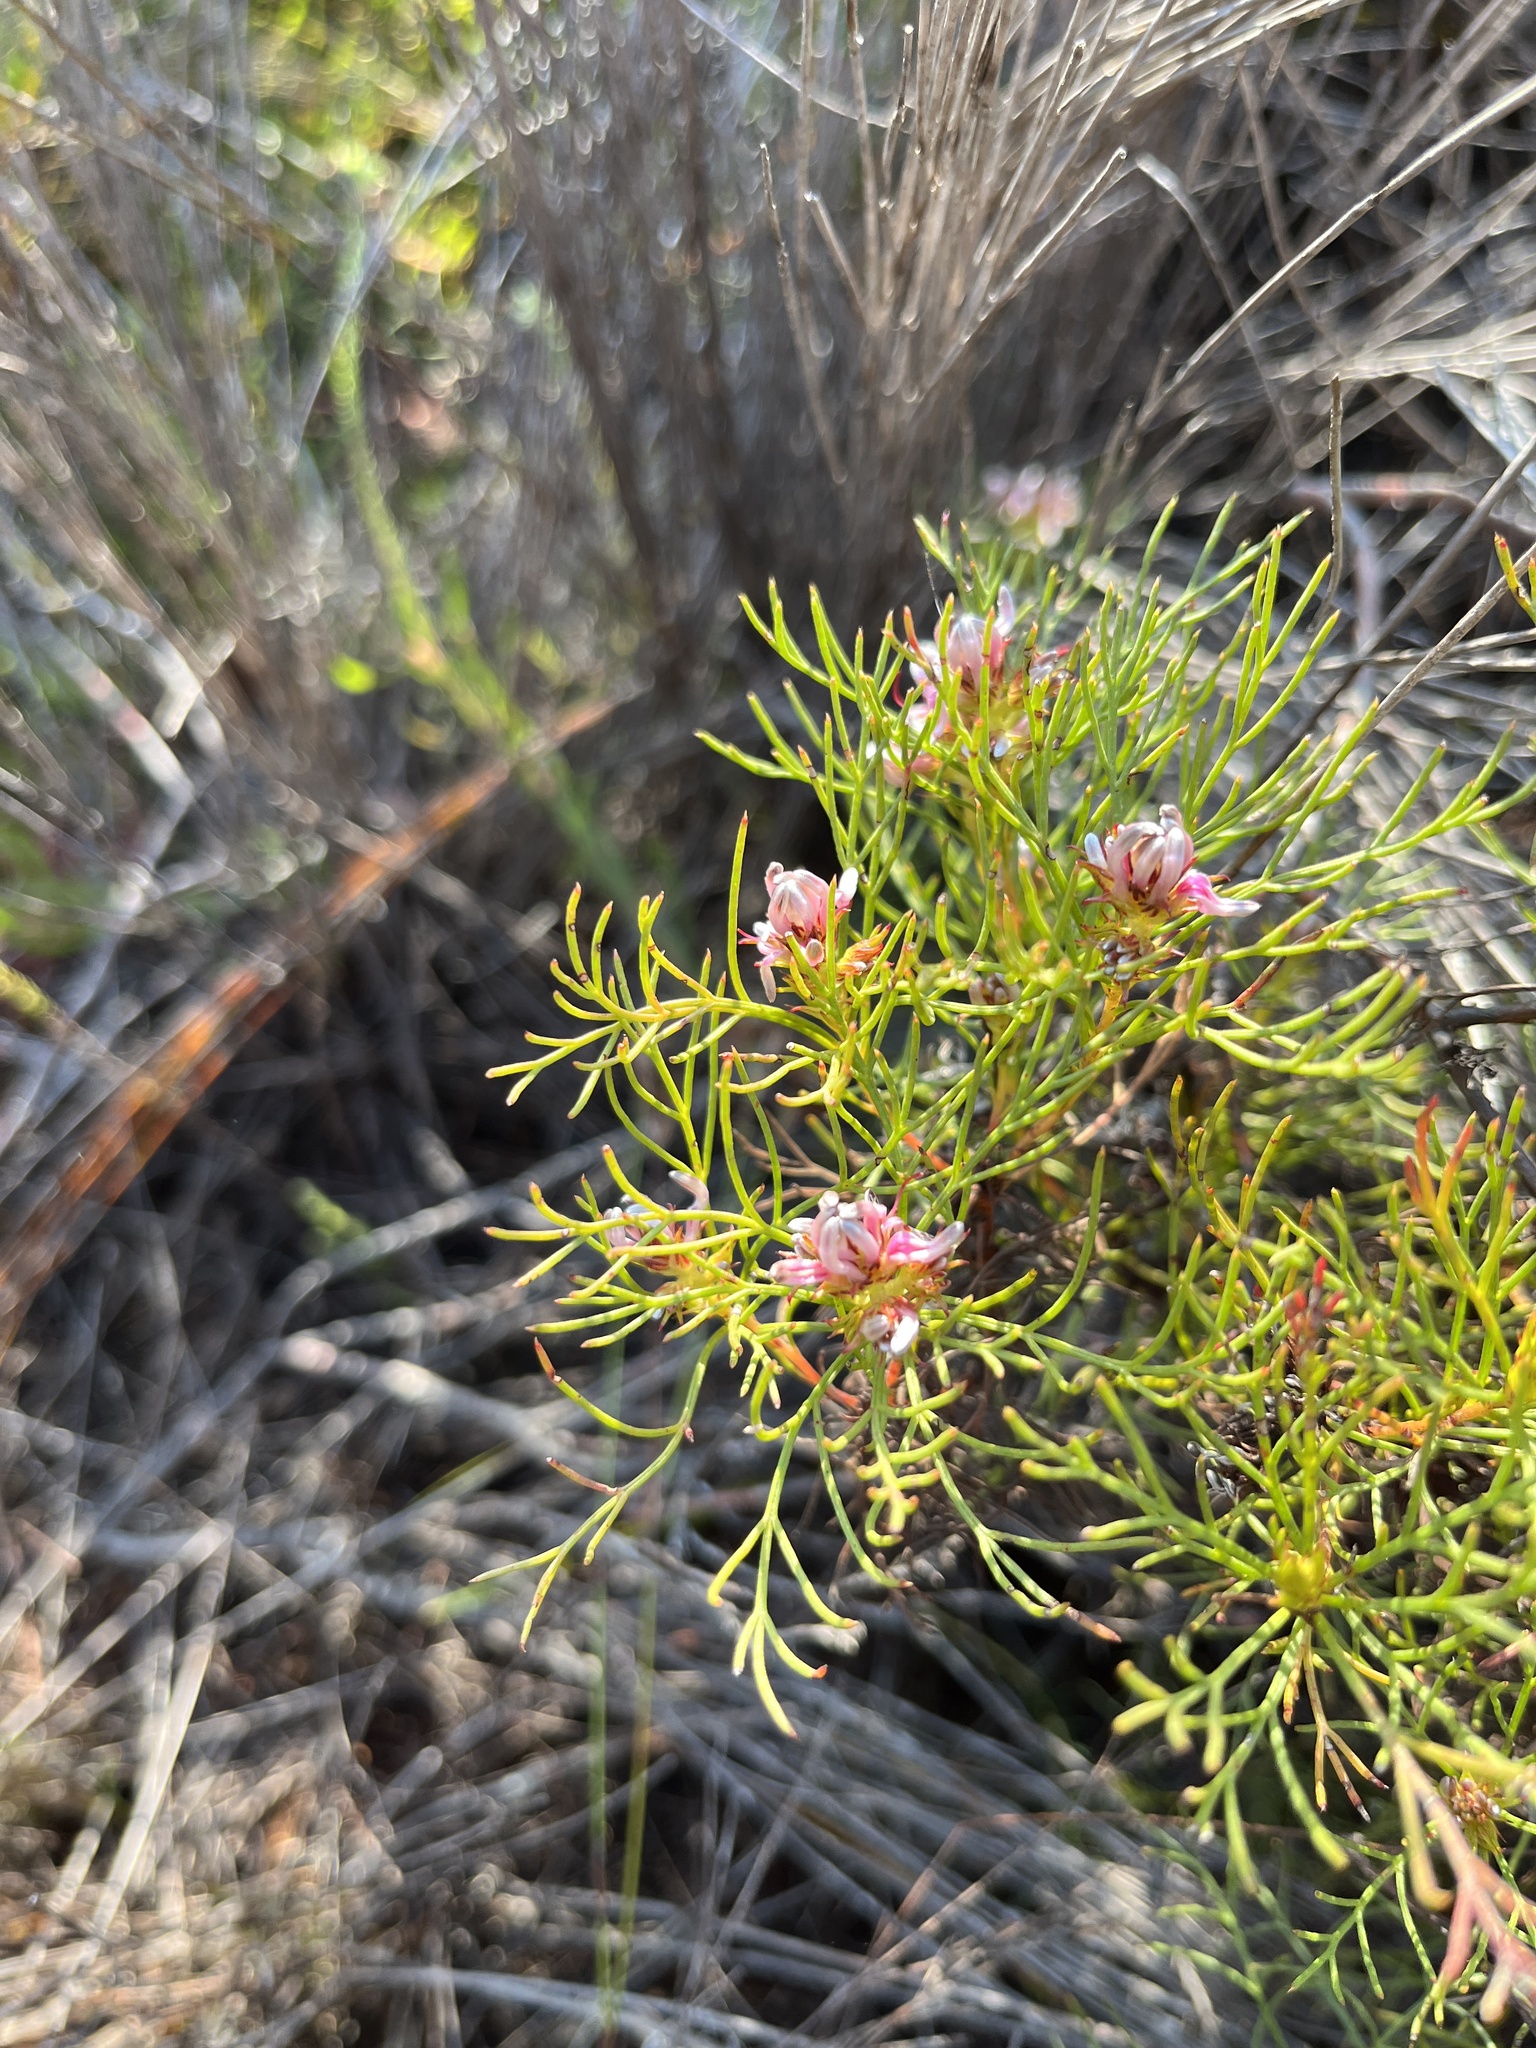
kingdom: Plantae
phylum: Tracheophyta
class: Magnoliopsida
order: Proteales
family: Proteaceae
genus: Serruria
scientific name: Serruria bolusii
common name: Agulhas spiderhead
